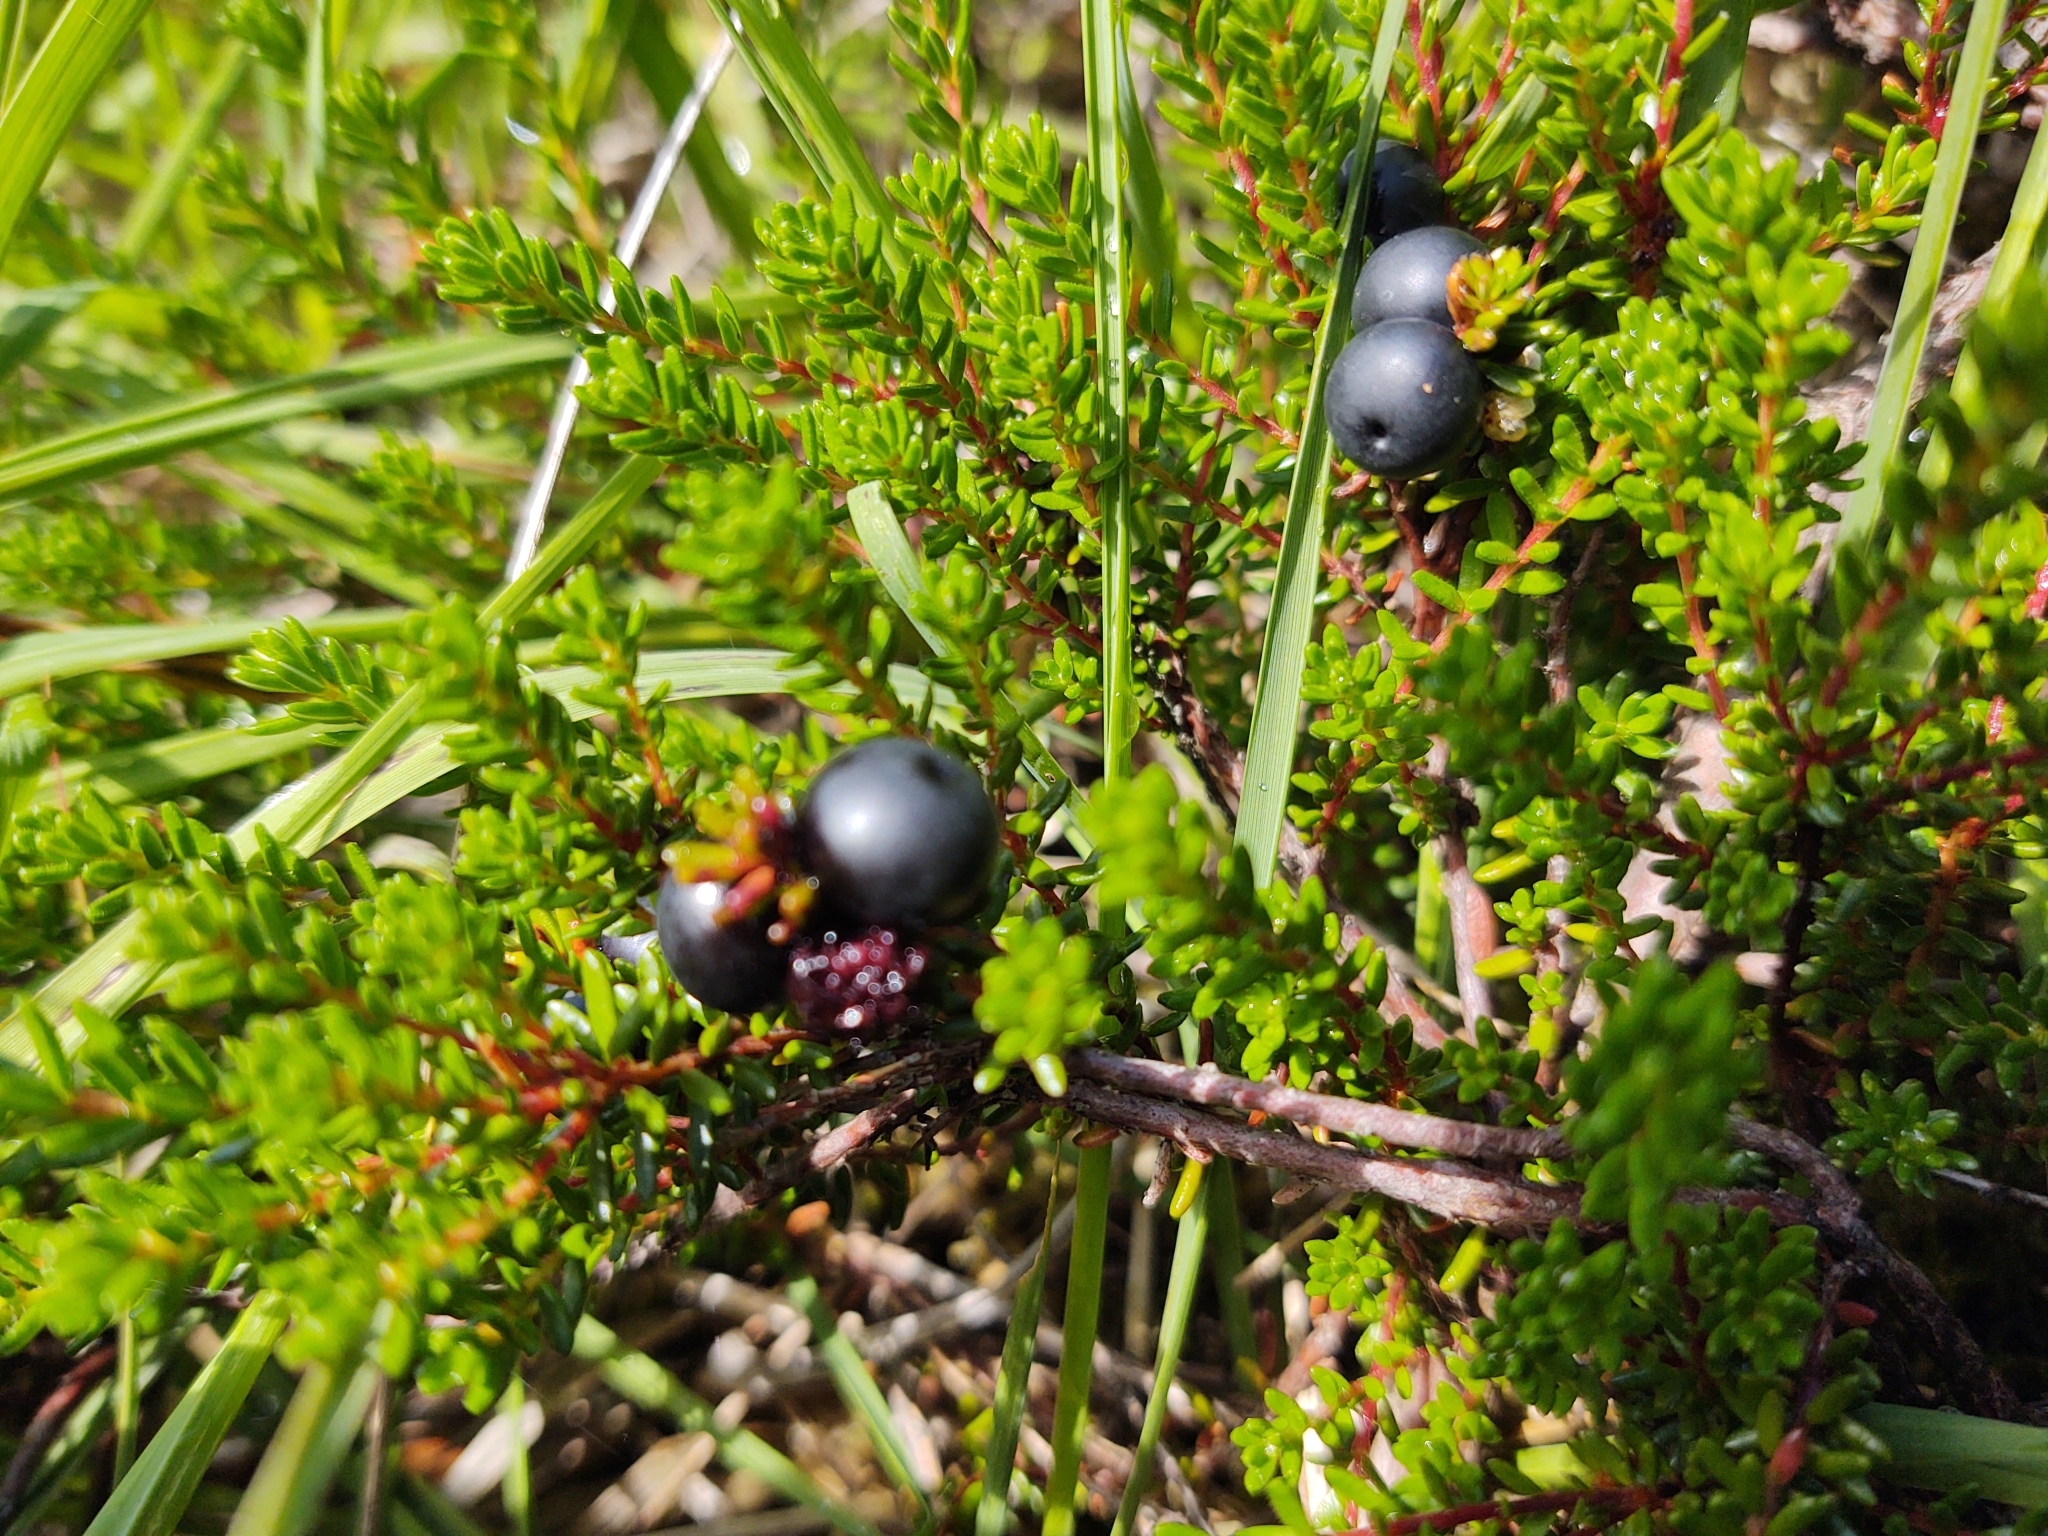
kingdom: Plantae
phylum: Tracheophyta
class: Magnoliopsida
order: Ericales
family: Ericaceae
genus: Empetrum
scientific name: Empetrum nigrum
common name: Black crowberry
